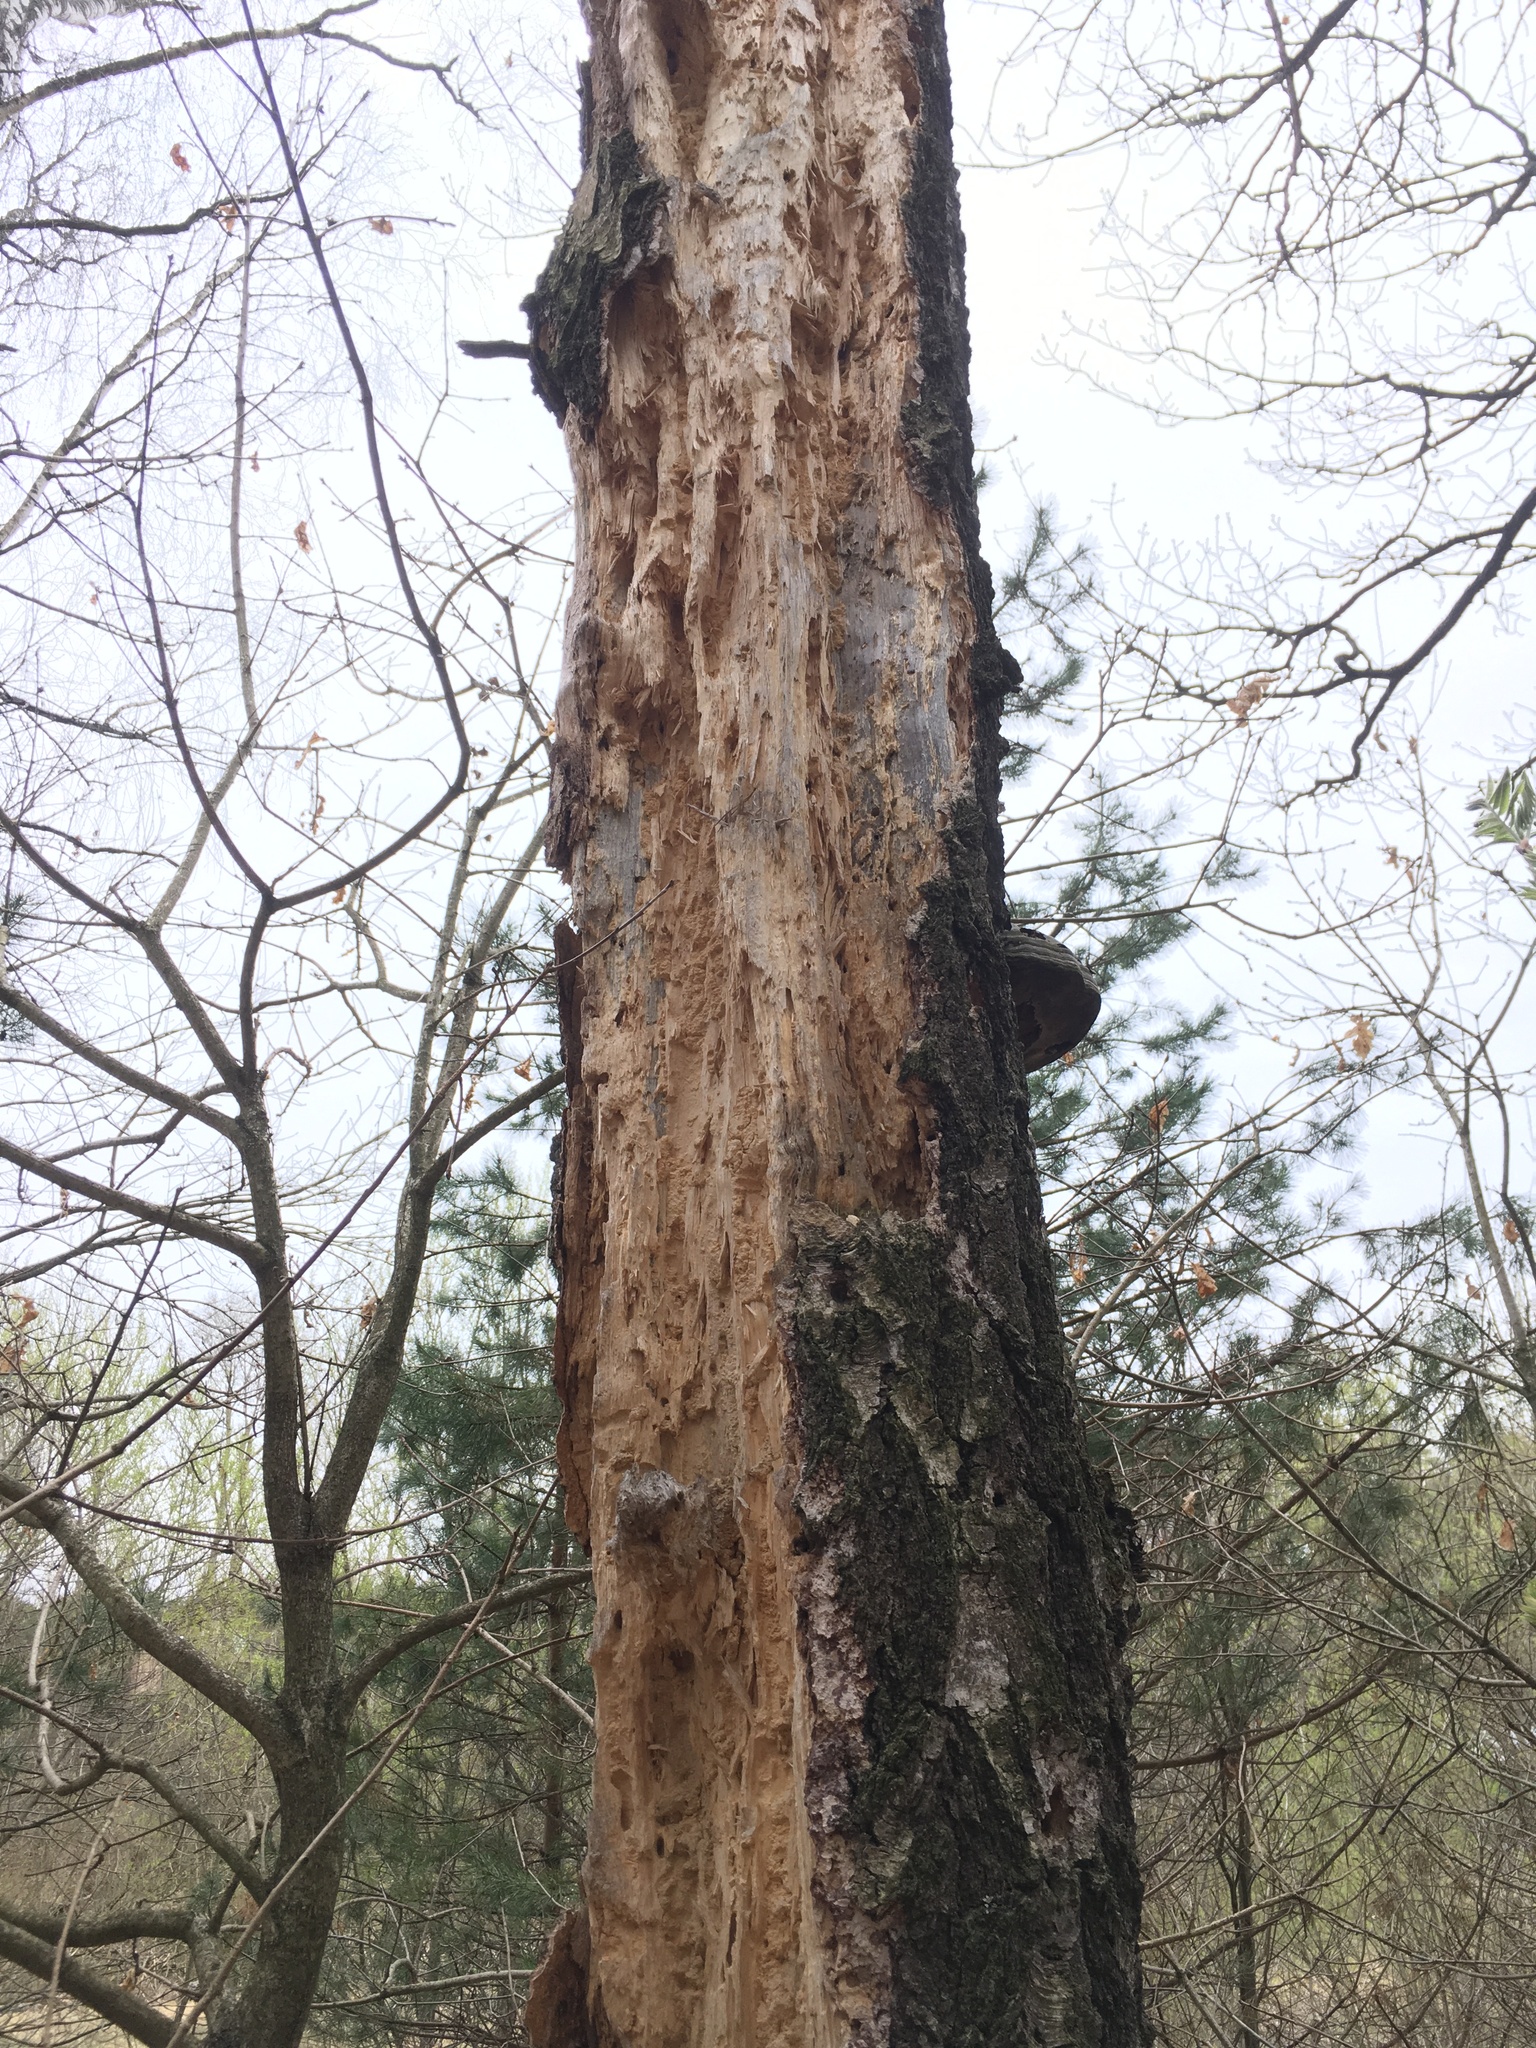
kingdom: Animalia
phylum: Chordata
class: Aves
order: Piciformes
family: Picidae
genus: Dryocopus
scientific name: Dryocopus martius
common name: Black woodpecker
